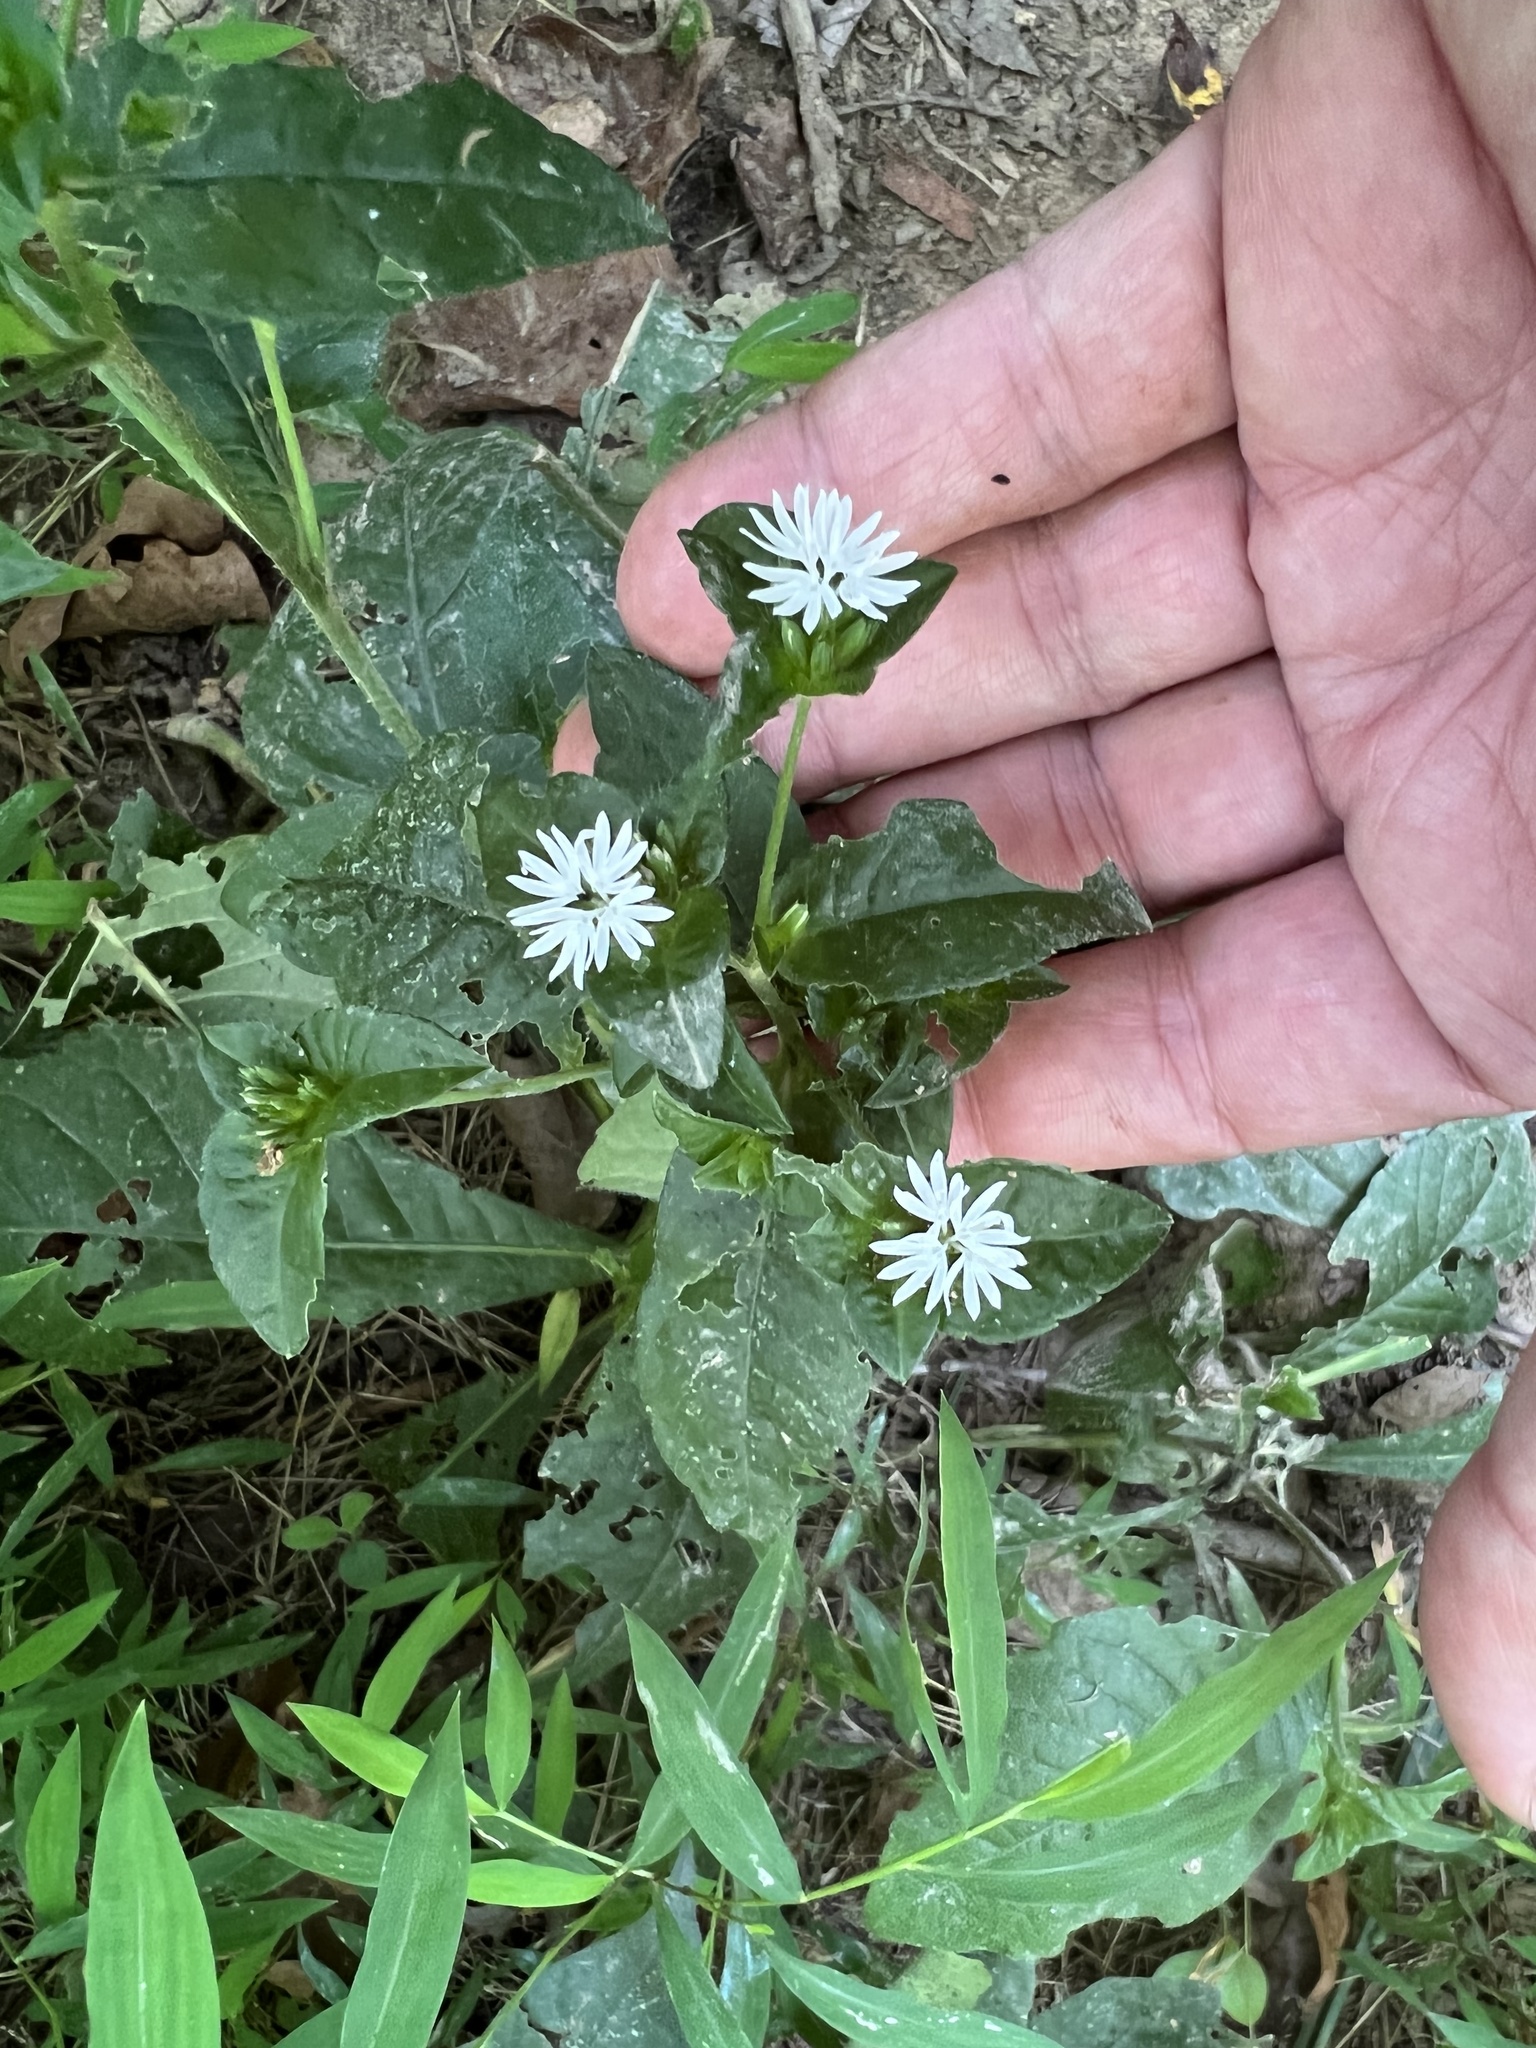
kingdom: Plantae
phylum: Tracheophyta
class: Magnoliopsida
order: Asterales
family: Asteraceae
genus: Elephantopus
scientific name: Elephantopus carolinianus
